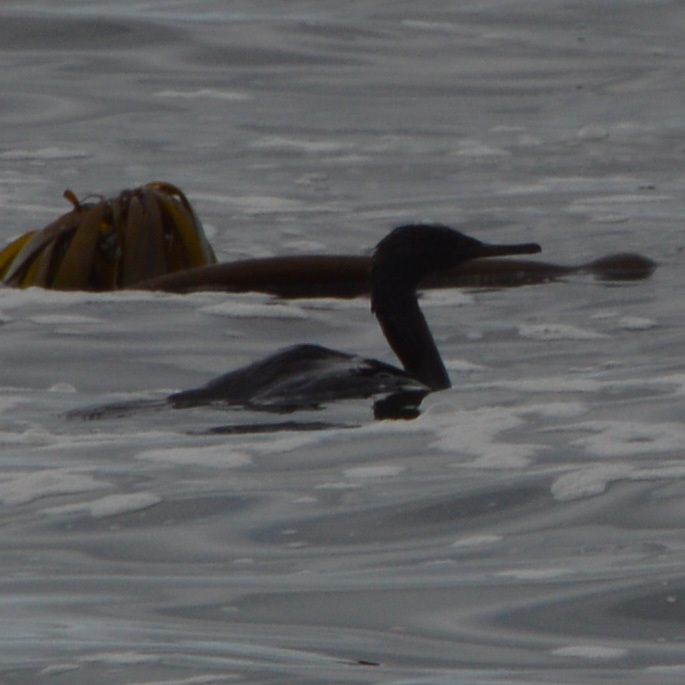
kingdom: Animalia
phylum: Chordata
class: Aves
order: Suliformes
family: Phalacrocoracidae
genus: Phalacrocorax
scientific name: Phalacrocorax pelagicus
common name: Pelagic cormorant
